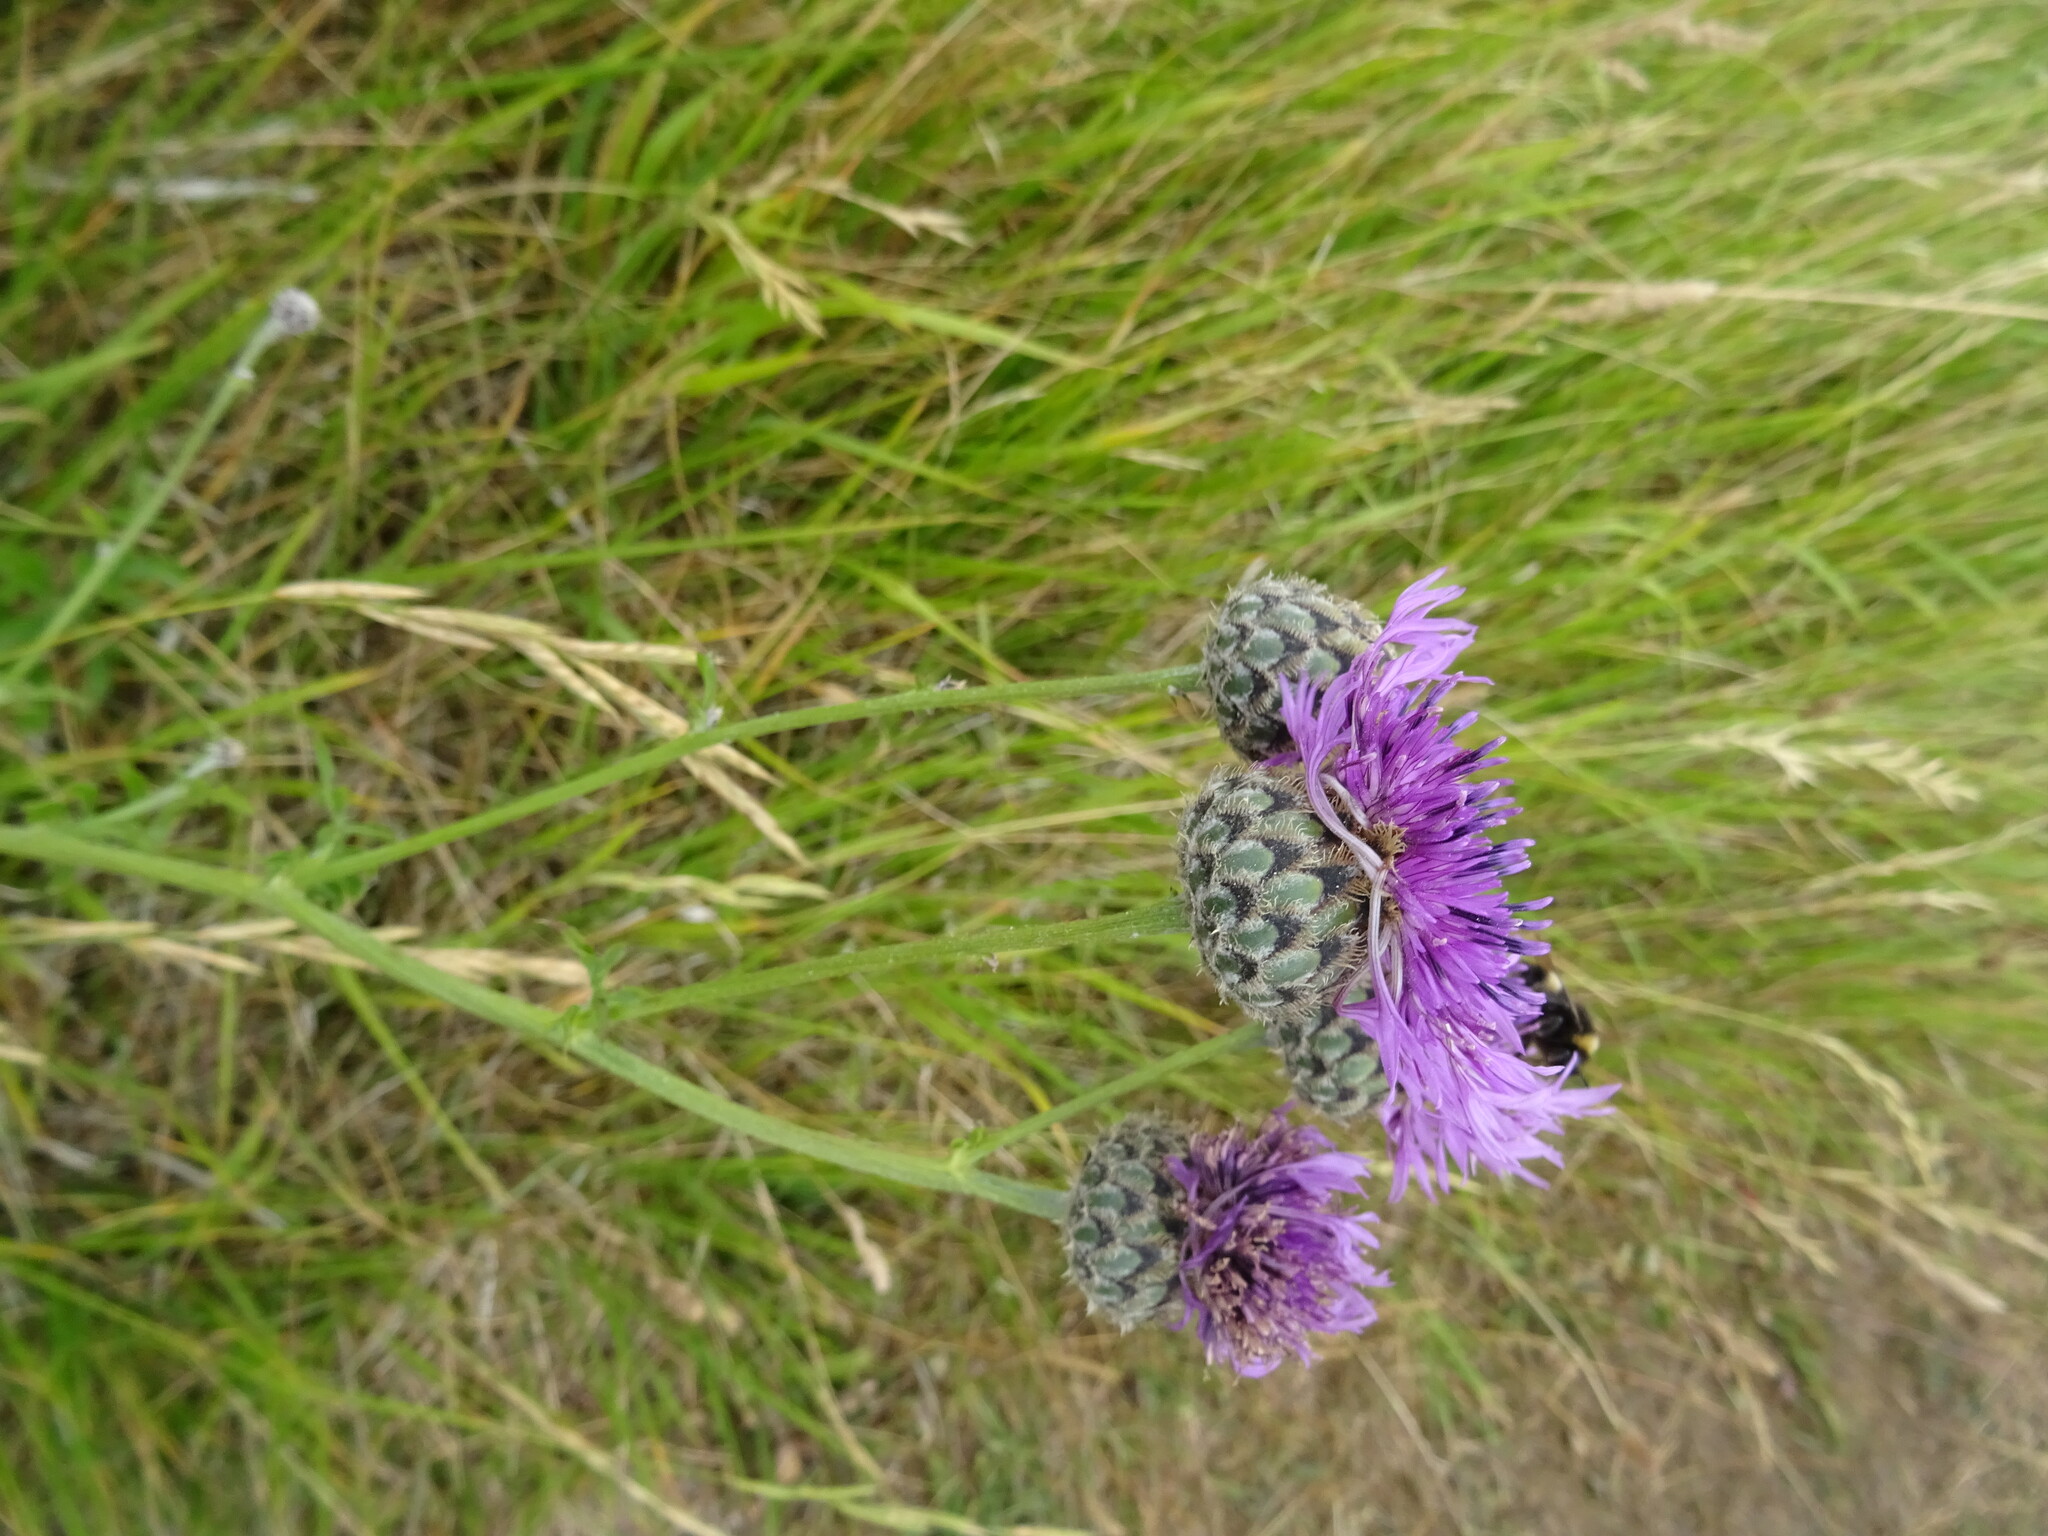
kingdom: Plantae
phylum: Tracheophyta
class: Magnoliopsida
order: Asterales
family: Asteraceae
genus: Centaurea
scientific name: Centaurea scabiosa
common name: Greater knapweed
